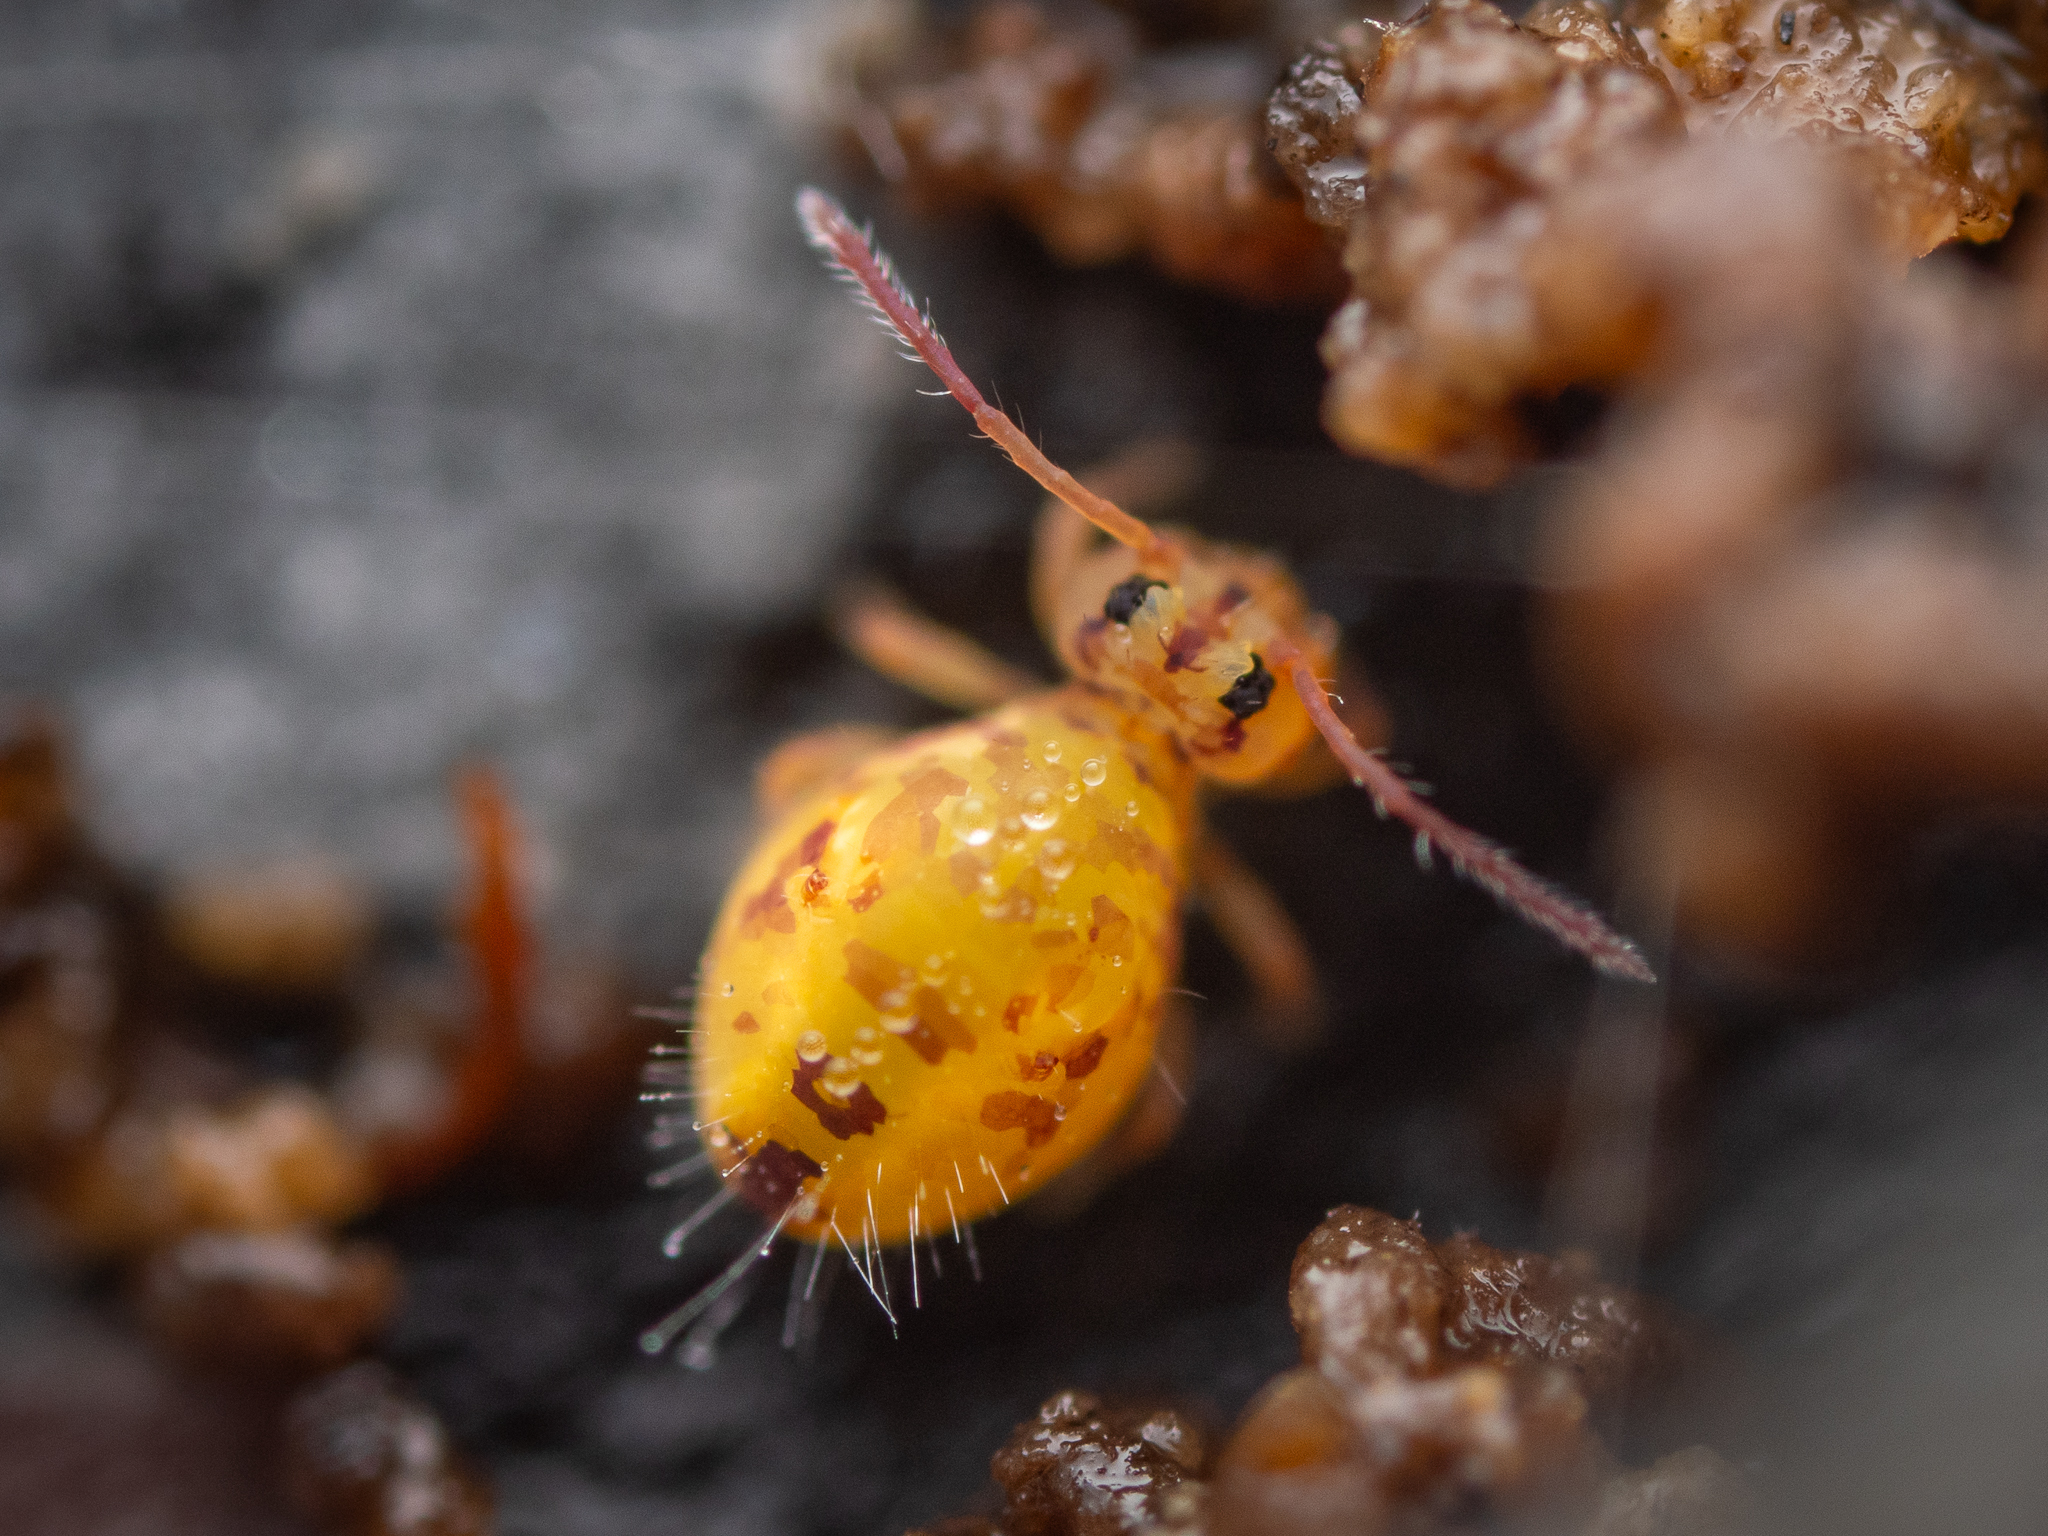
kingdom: Animalia
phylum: Arthropoda
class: Collembola
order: Symphypleona
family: Dicyrtomidae
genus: Dicyrtomina
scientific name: Dicyrtomina ornata
